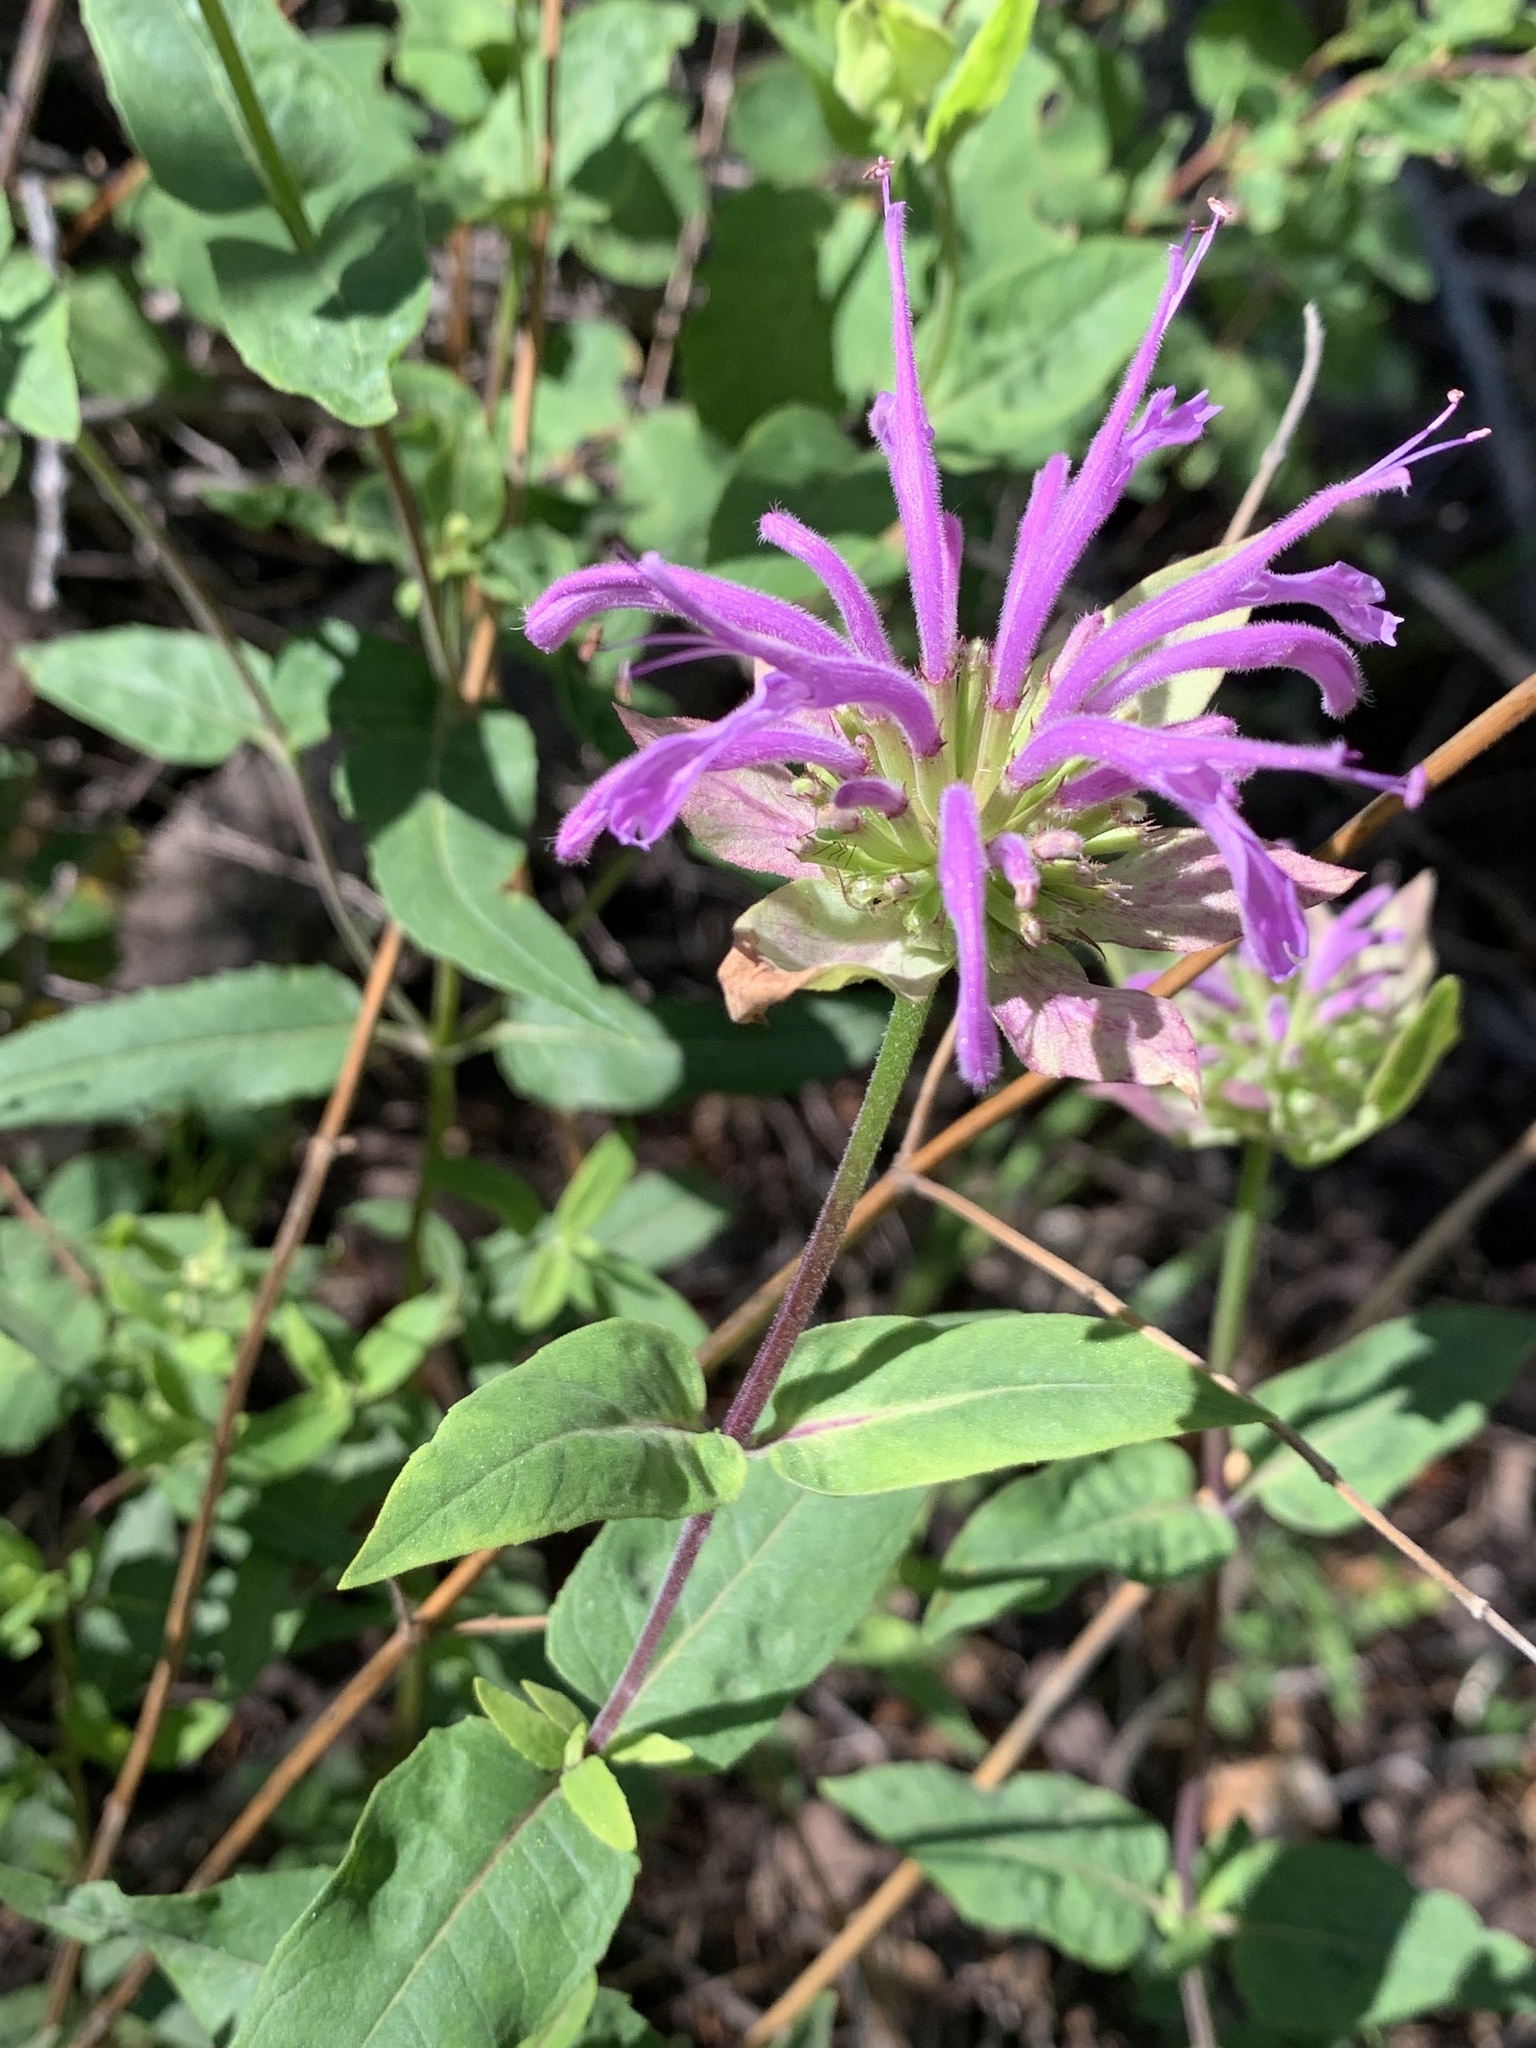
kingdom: Plantae
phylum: Tracheophyta
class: Magnoliopsida
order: Lamiales
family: Lamiaceae
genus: Monarda
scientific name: Monarda fistulosa
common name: Purple beebalm
